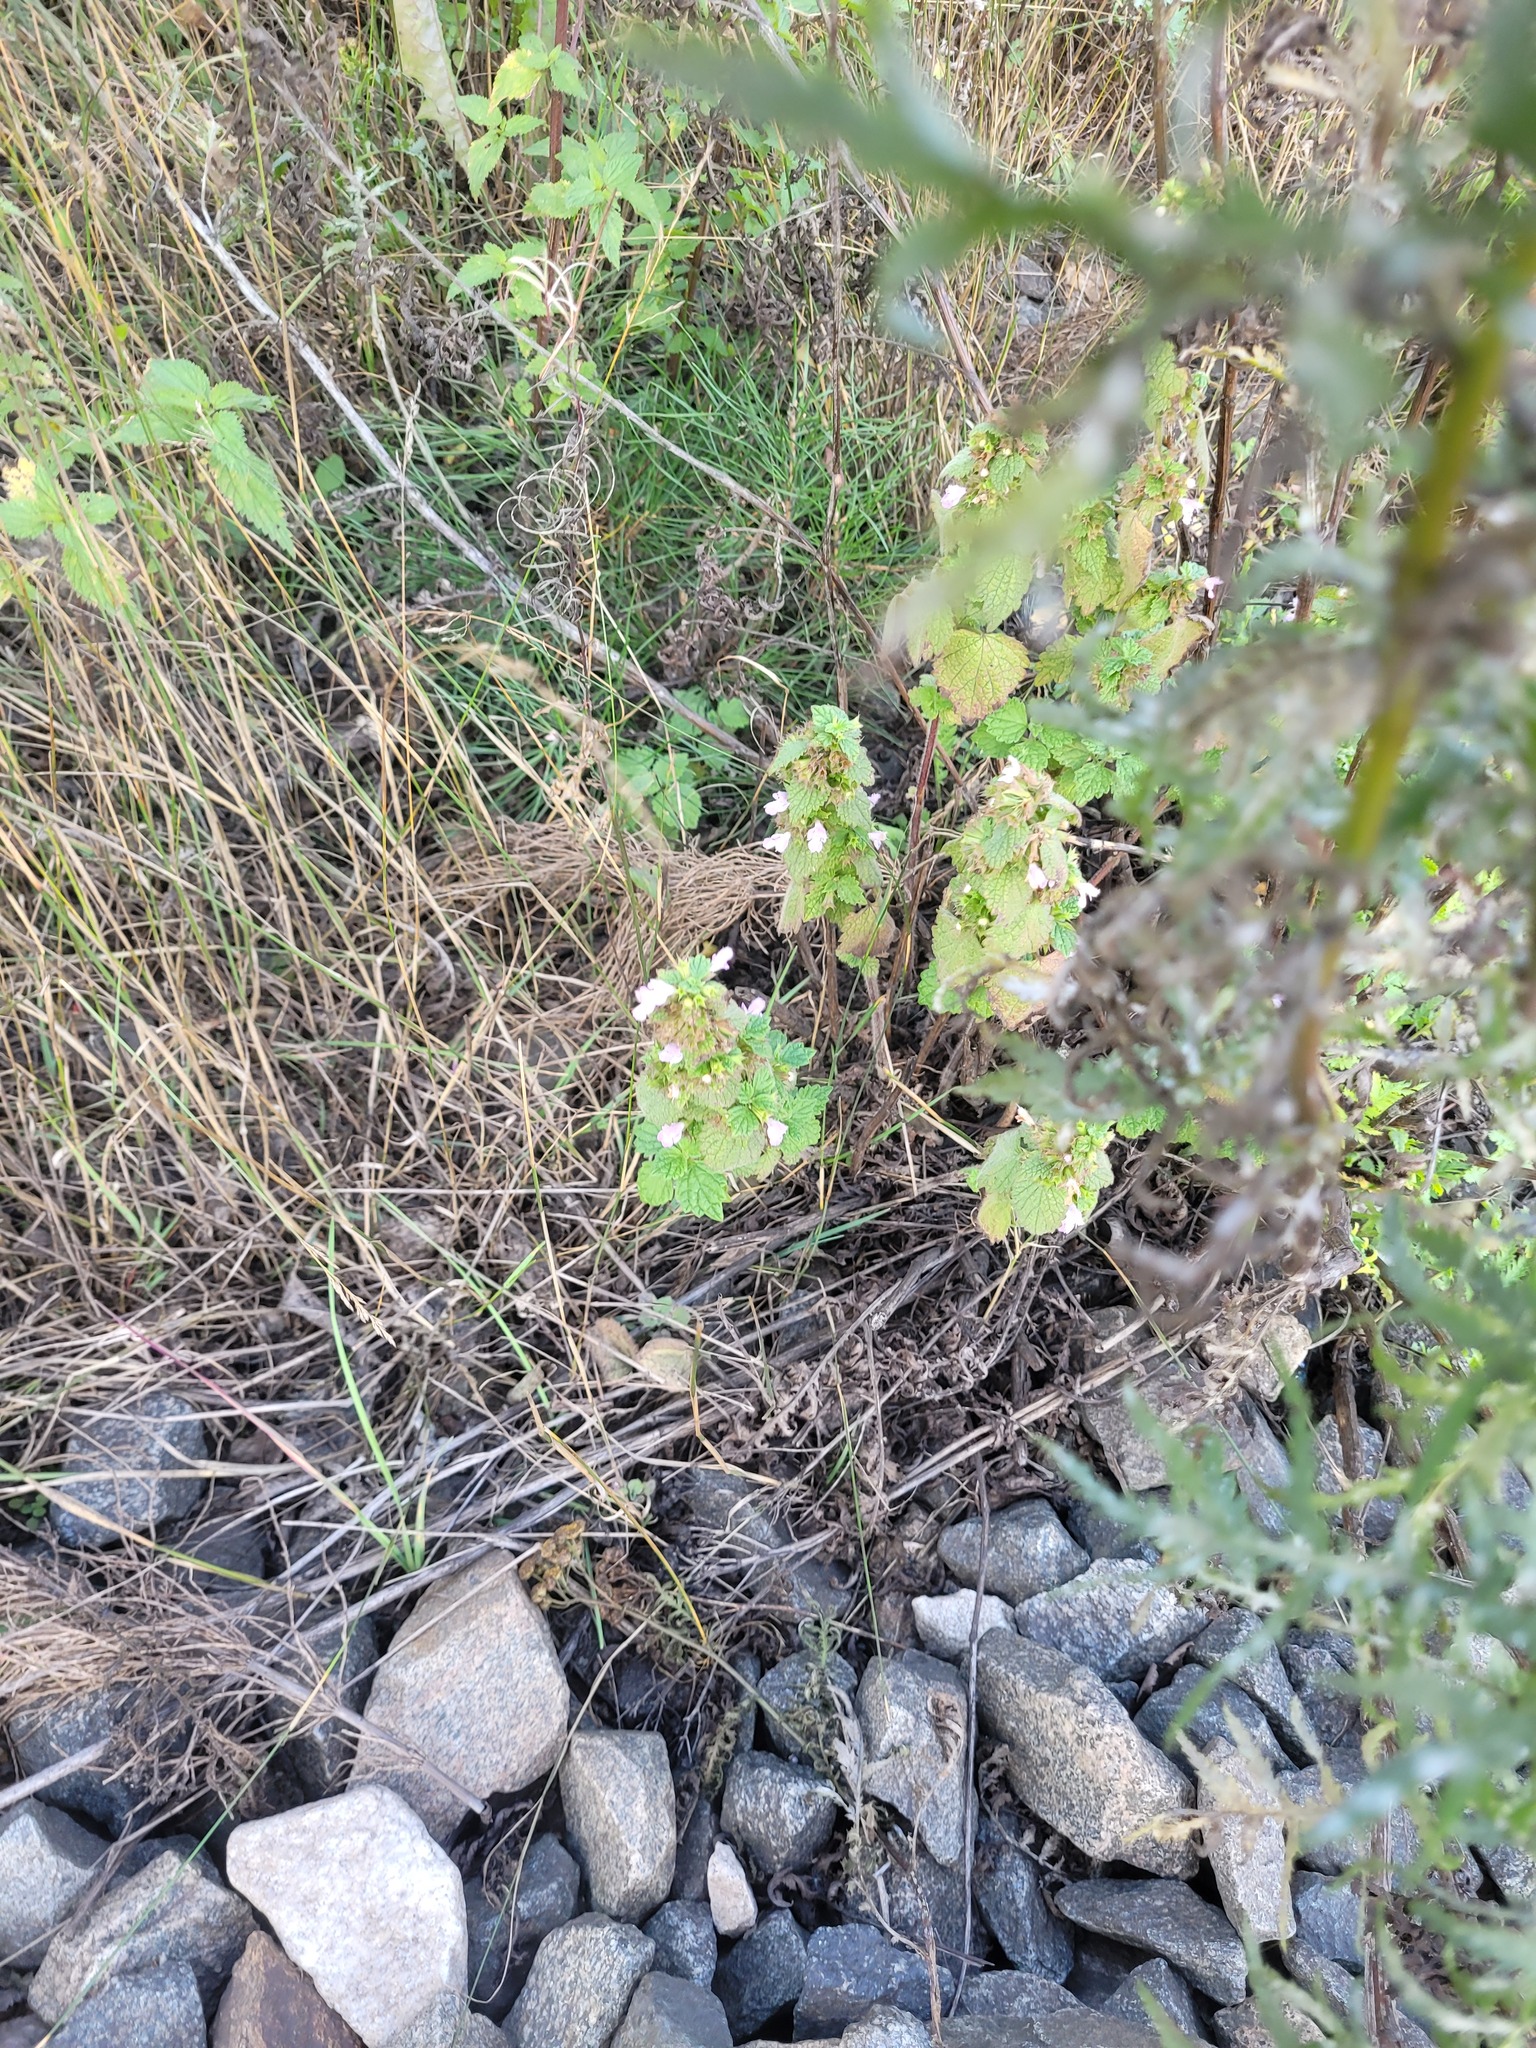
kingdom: Plantae
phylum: Tracheophyta
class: Magnoliopsida
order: Lamiales
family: Lamiaceae
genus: Ballota
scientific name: Ballota nigra
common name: Black horehound
